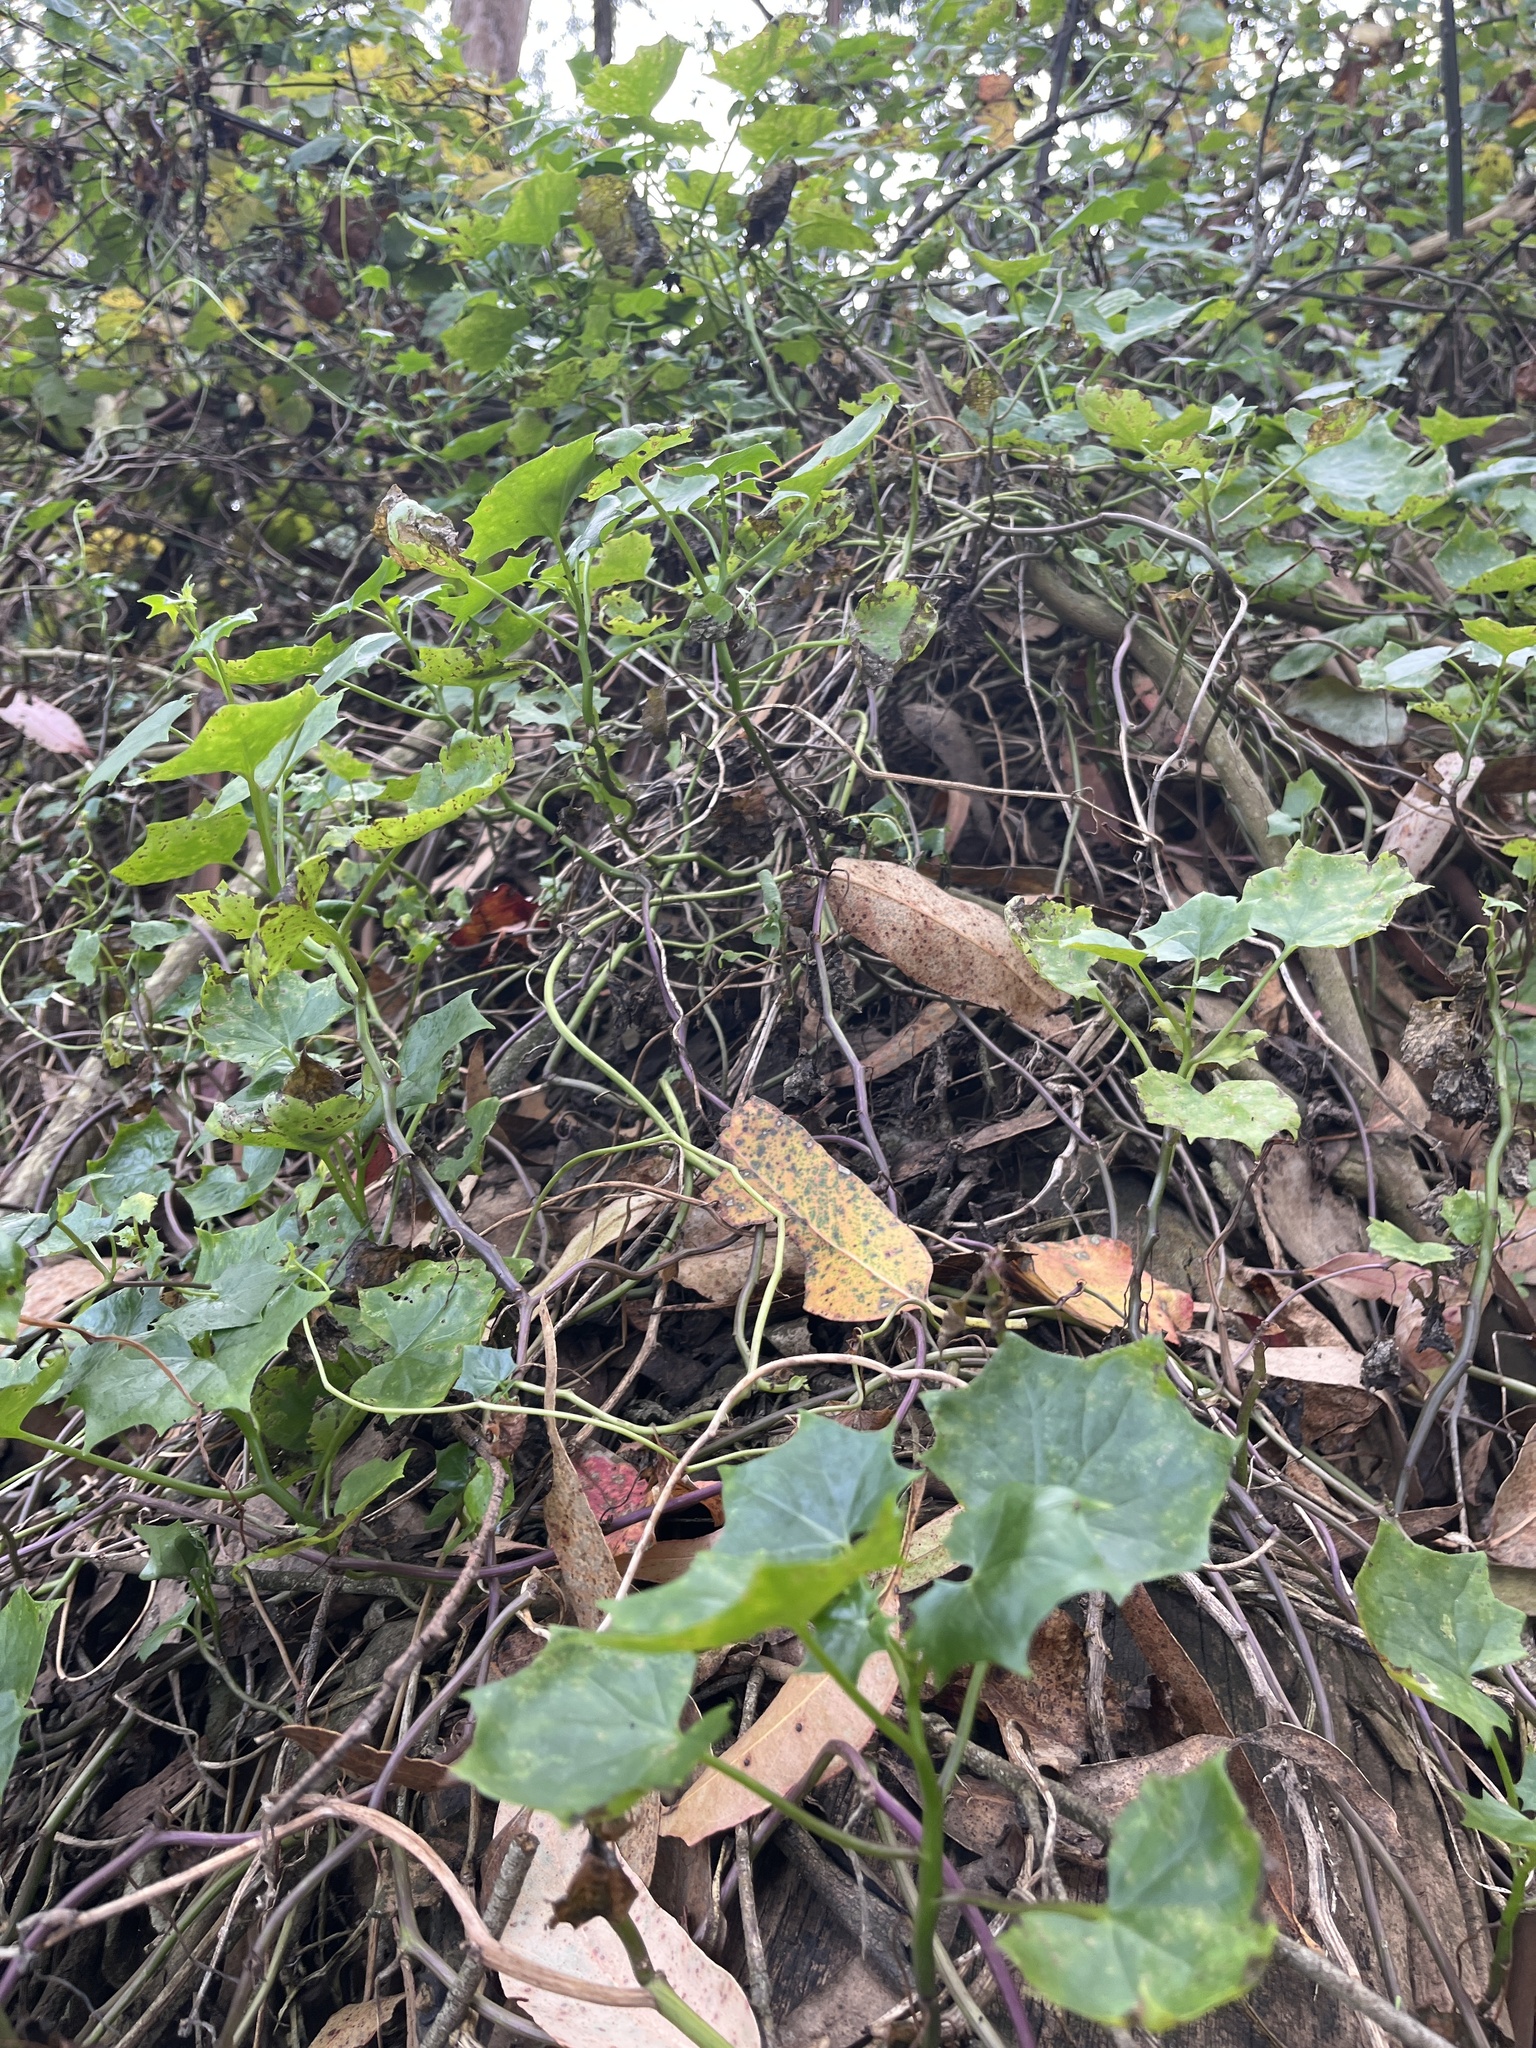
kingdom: Plantae
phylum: Tracheophyta
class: Magnoliopsida
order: Asterales
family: Asteraceae
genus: Delairea
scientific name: Delairea odorata
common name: Cape-ivy
